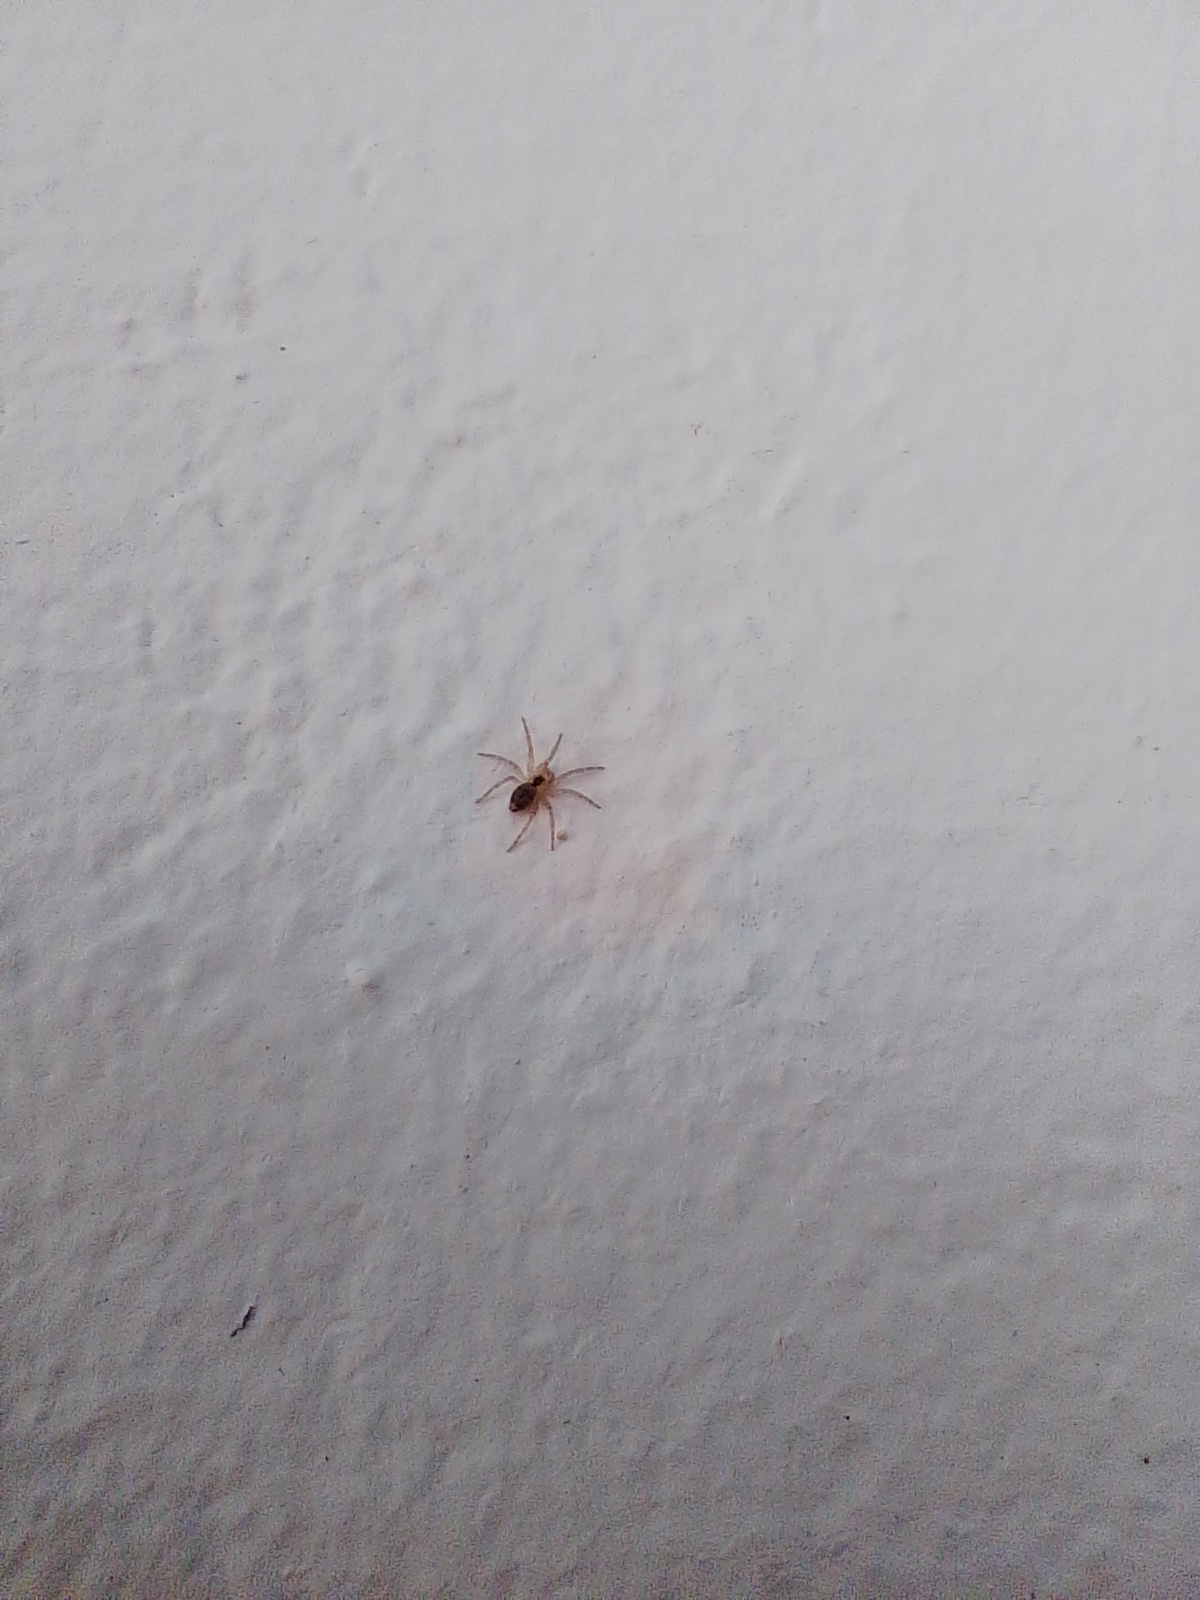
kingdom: Animalia
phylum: Arthropoda
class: Arachnida
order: Araneae
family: Oecobiidae
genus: Oecobius
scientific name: Oecobius navus
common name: Flatmesh weaver
